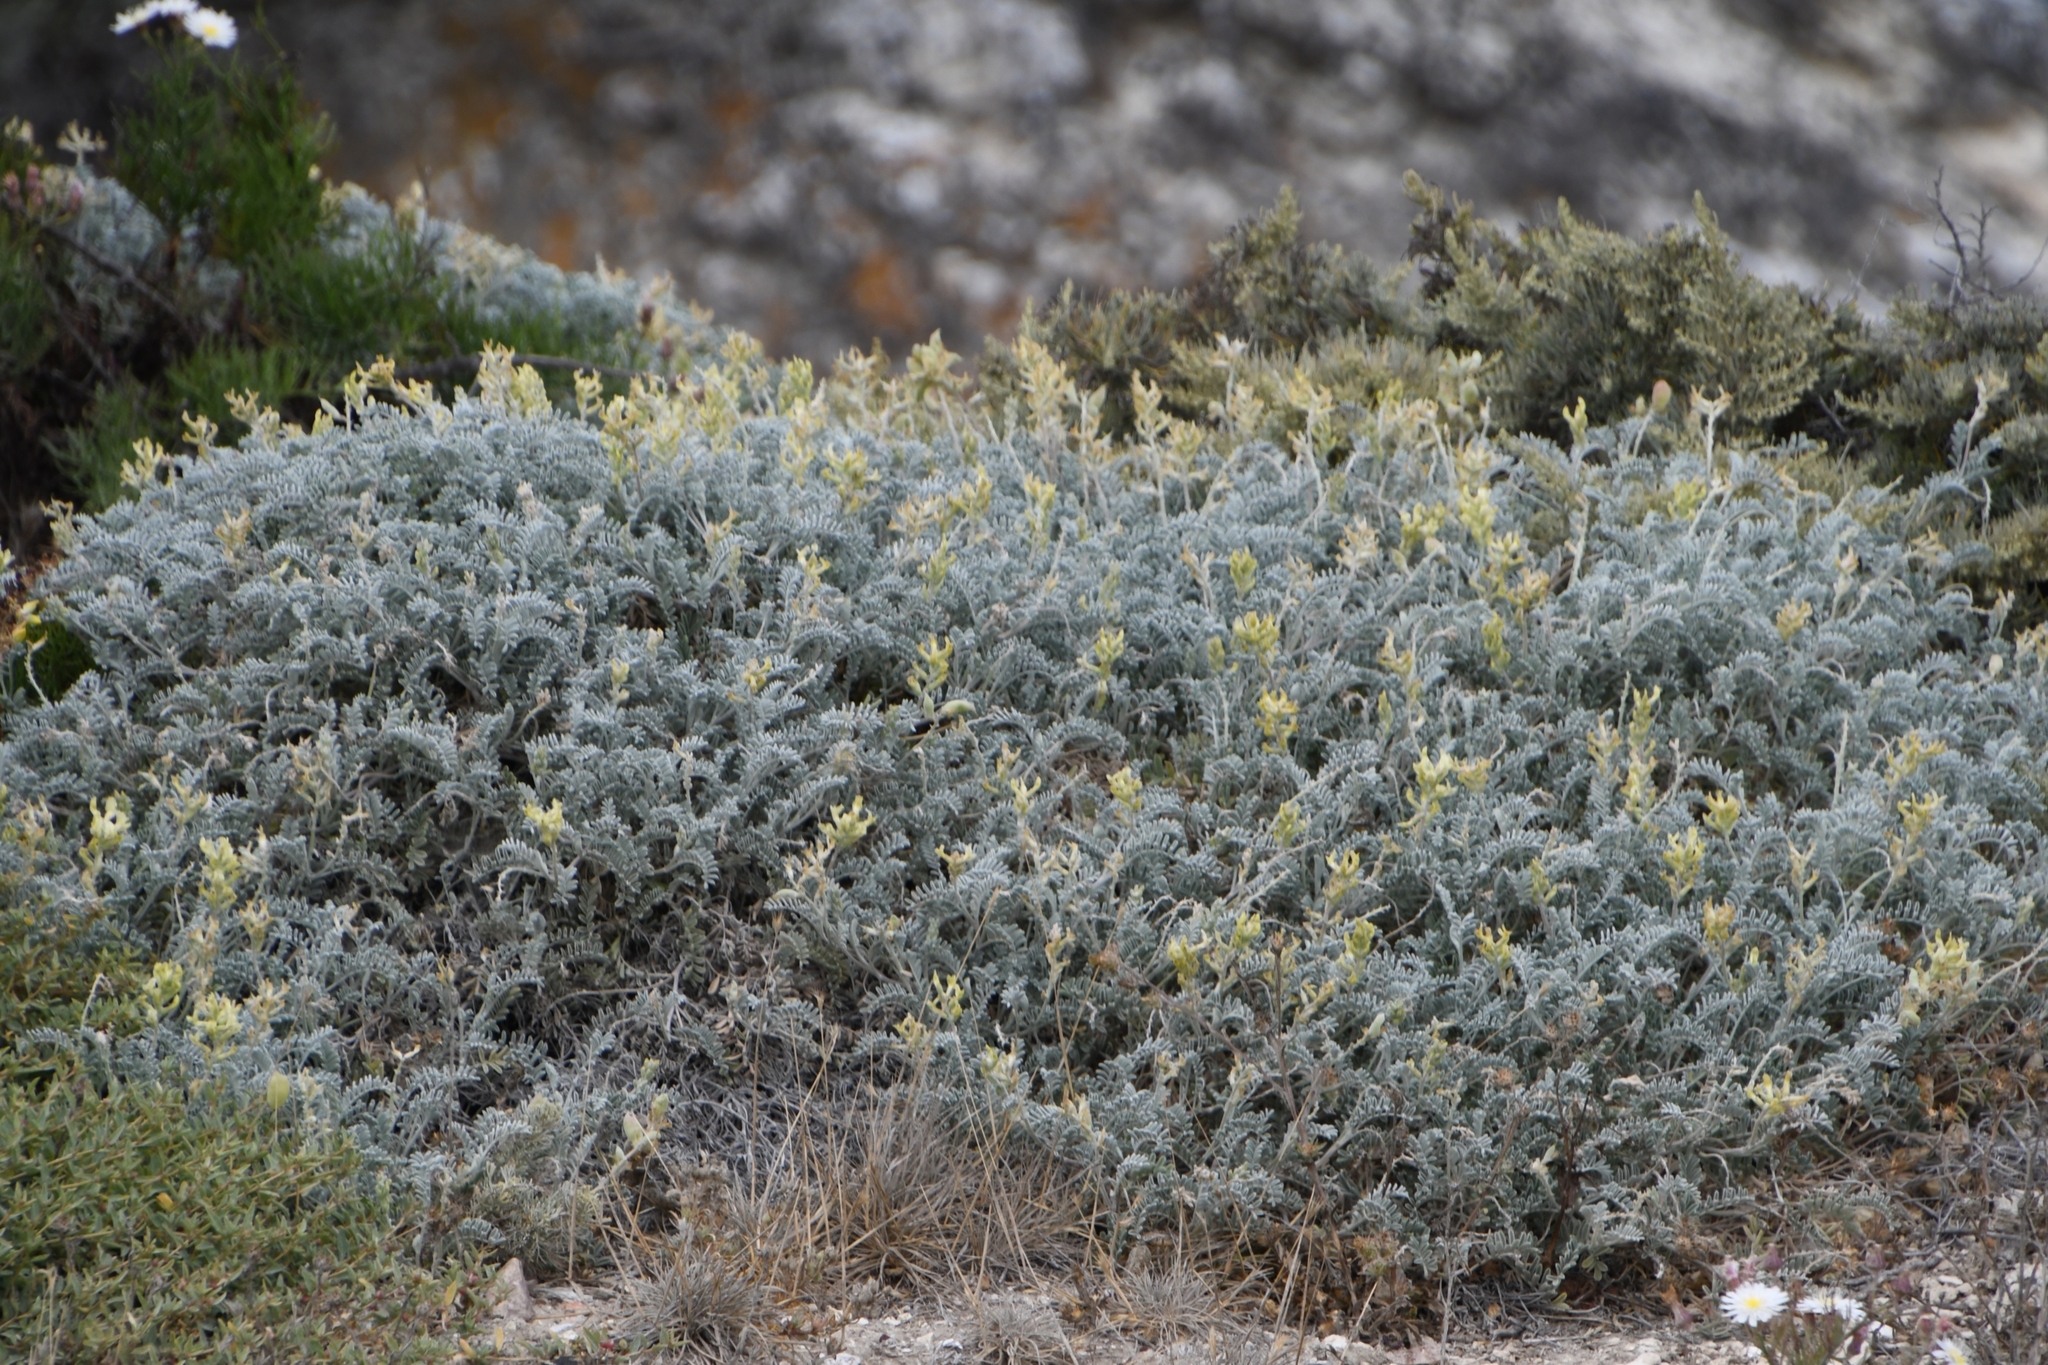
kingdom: Plantae
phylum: Tracheophyta
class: Magnoliopsida
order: Fabales
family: Fabaceae
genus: Astragalus
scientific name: Astragalus miguelensis
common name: San miguel milk-vetch
